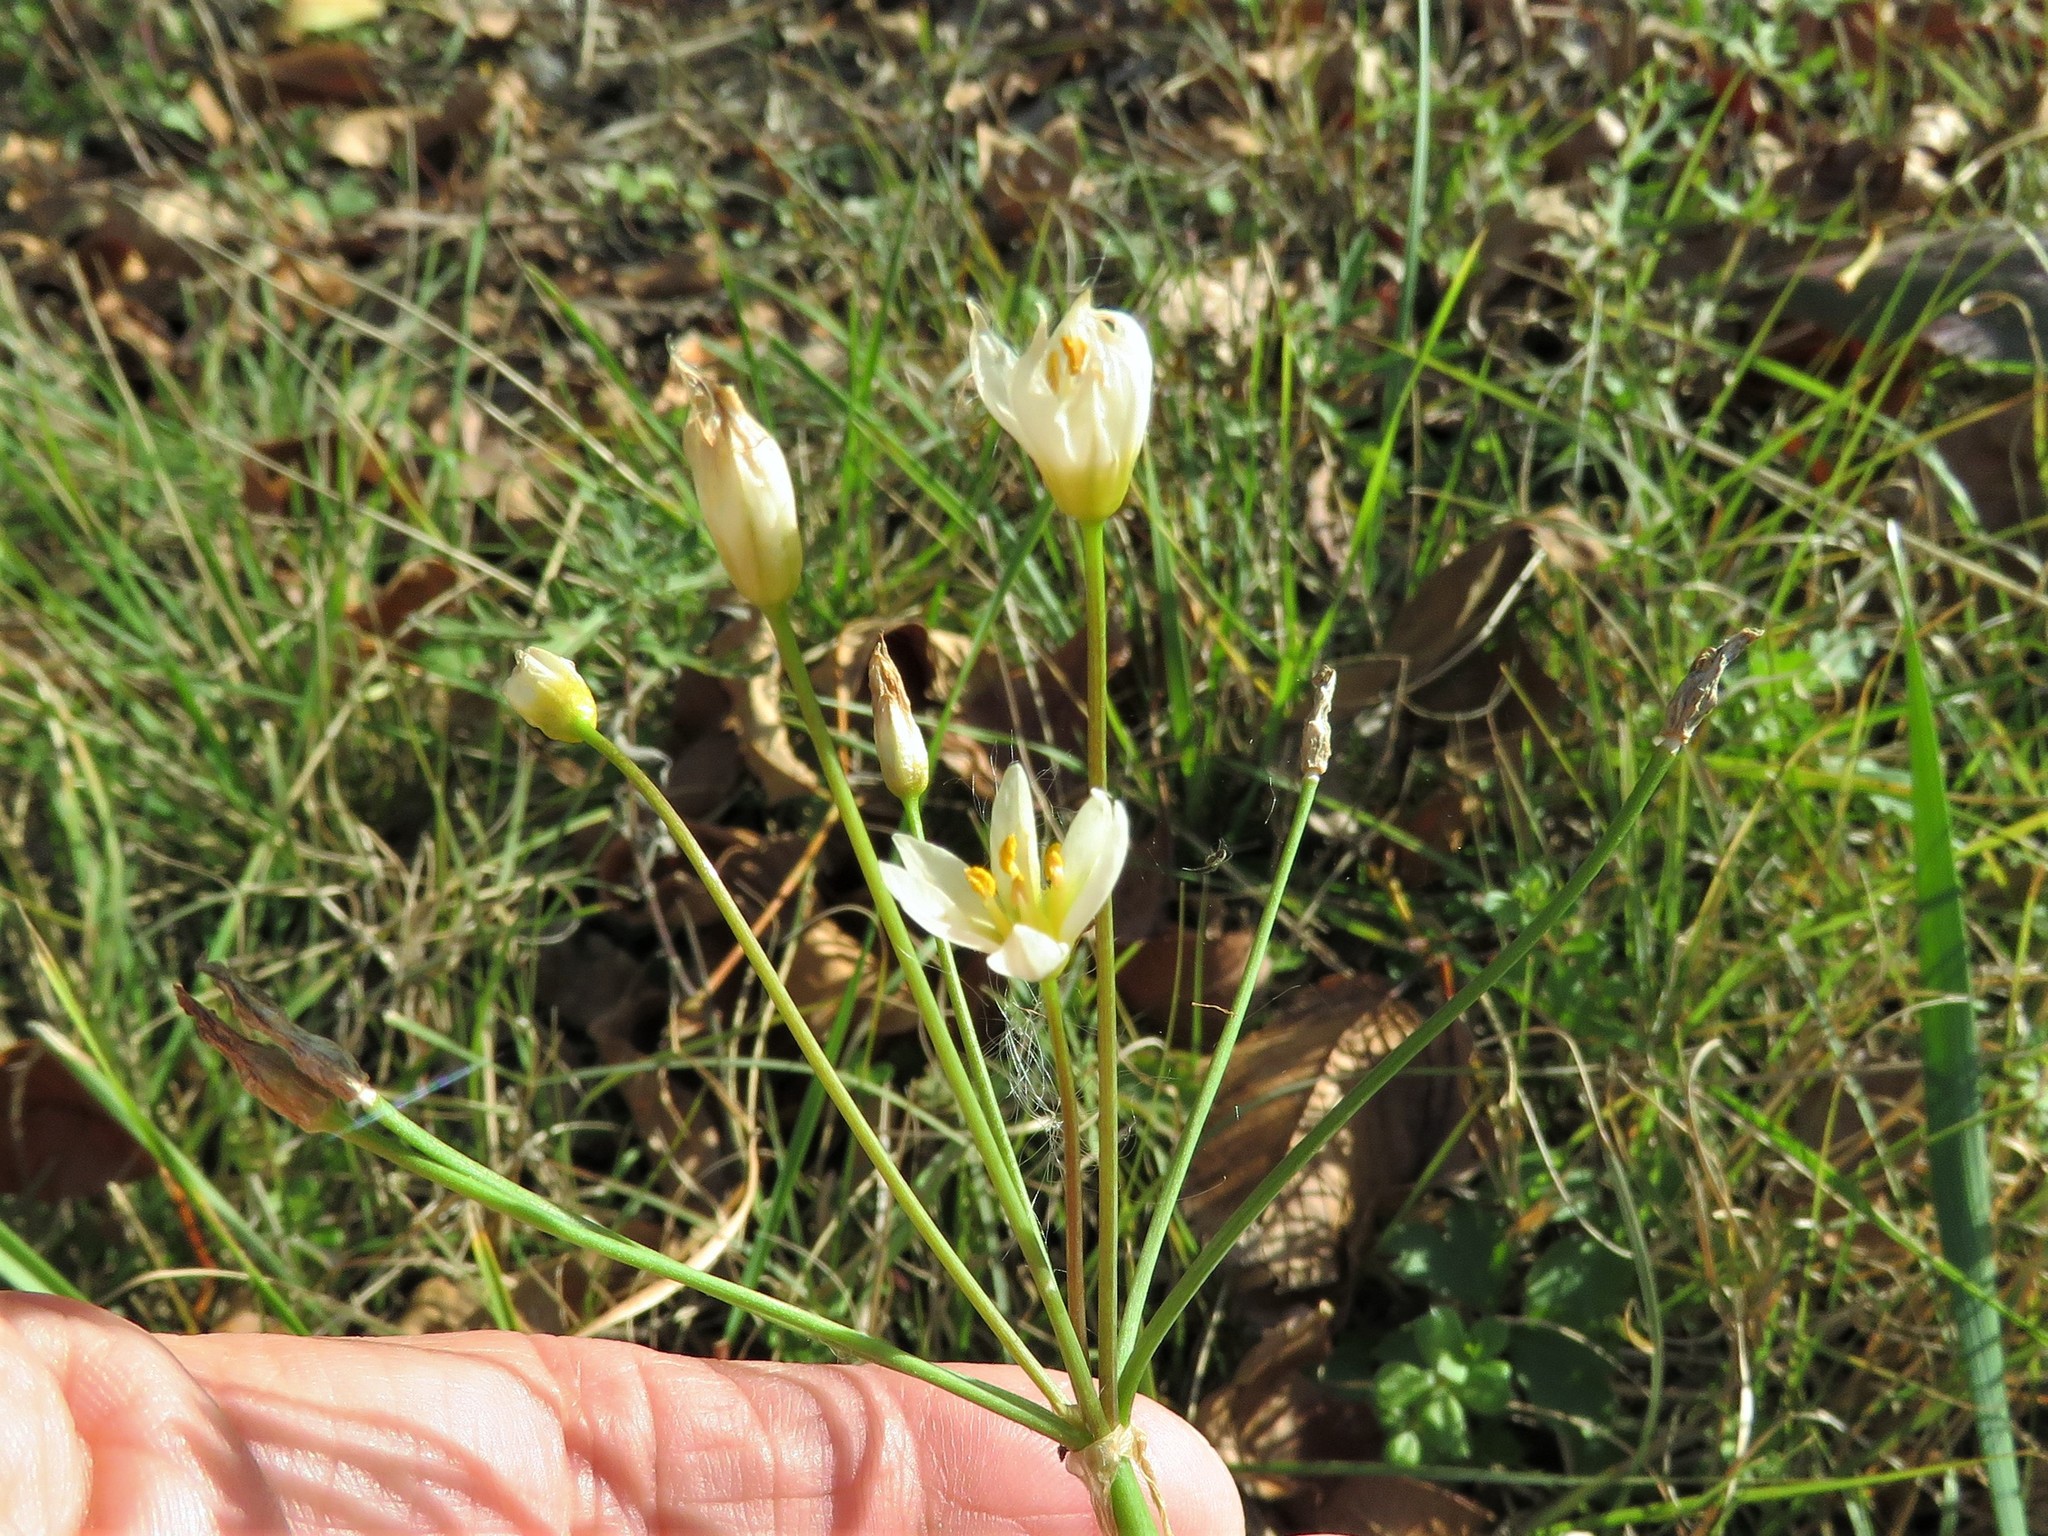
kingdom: Plantae
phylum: Tracheophyta
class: Liliopsida
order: Asparagales
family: Amaryllidaceae
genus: Nothoscordum
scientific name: Nothoscordum bivalve
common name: Crow-poison
